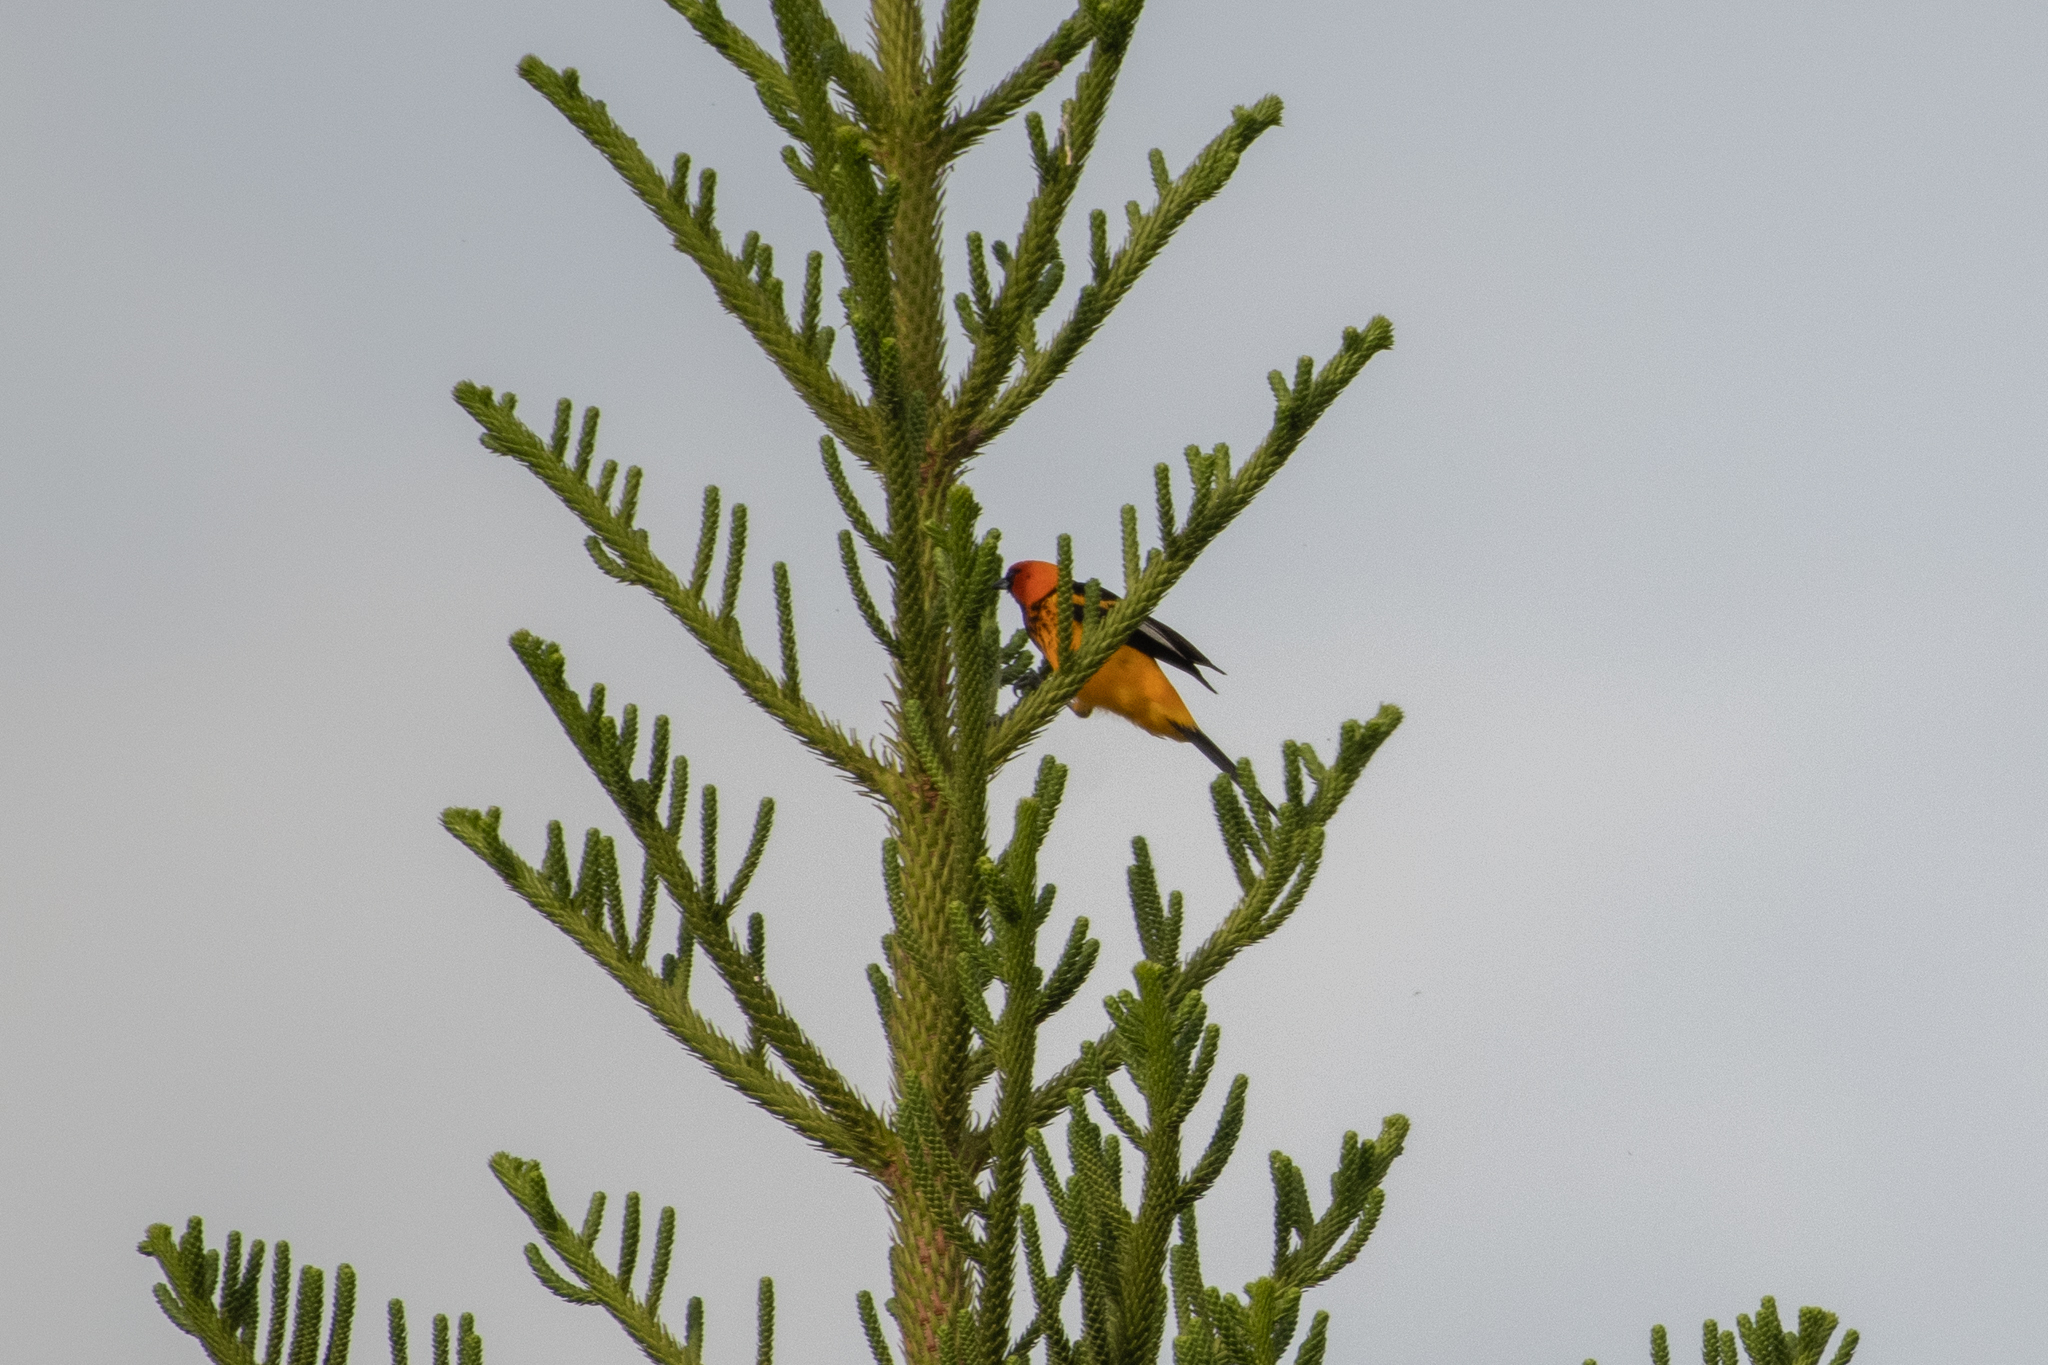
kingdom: Animalia
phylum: Chordata
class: Aves
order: Passeriformes
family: Icteridae
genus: Icterus
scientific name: Icterus pectoralis
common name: Spot-breasted oriole
